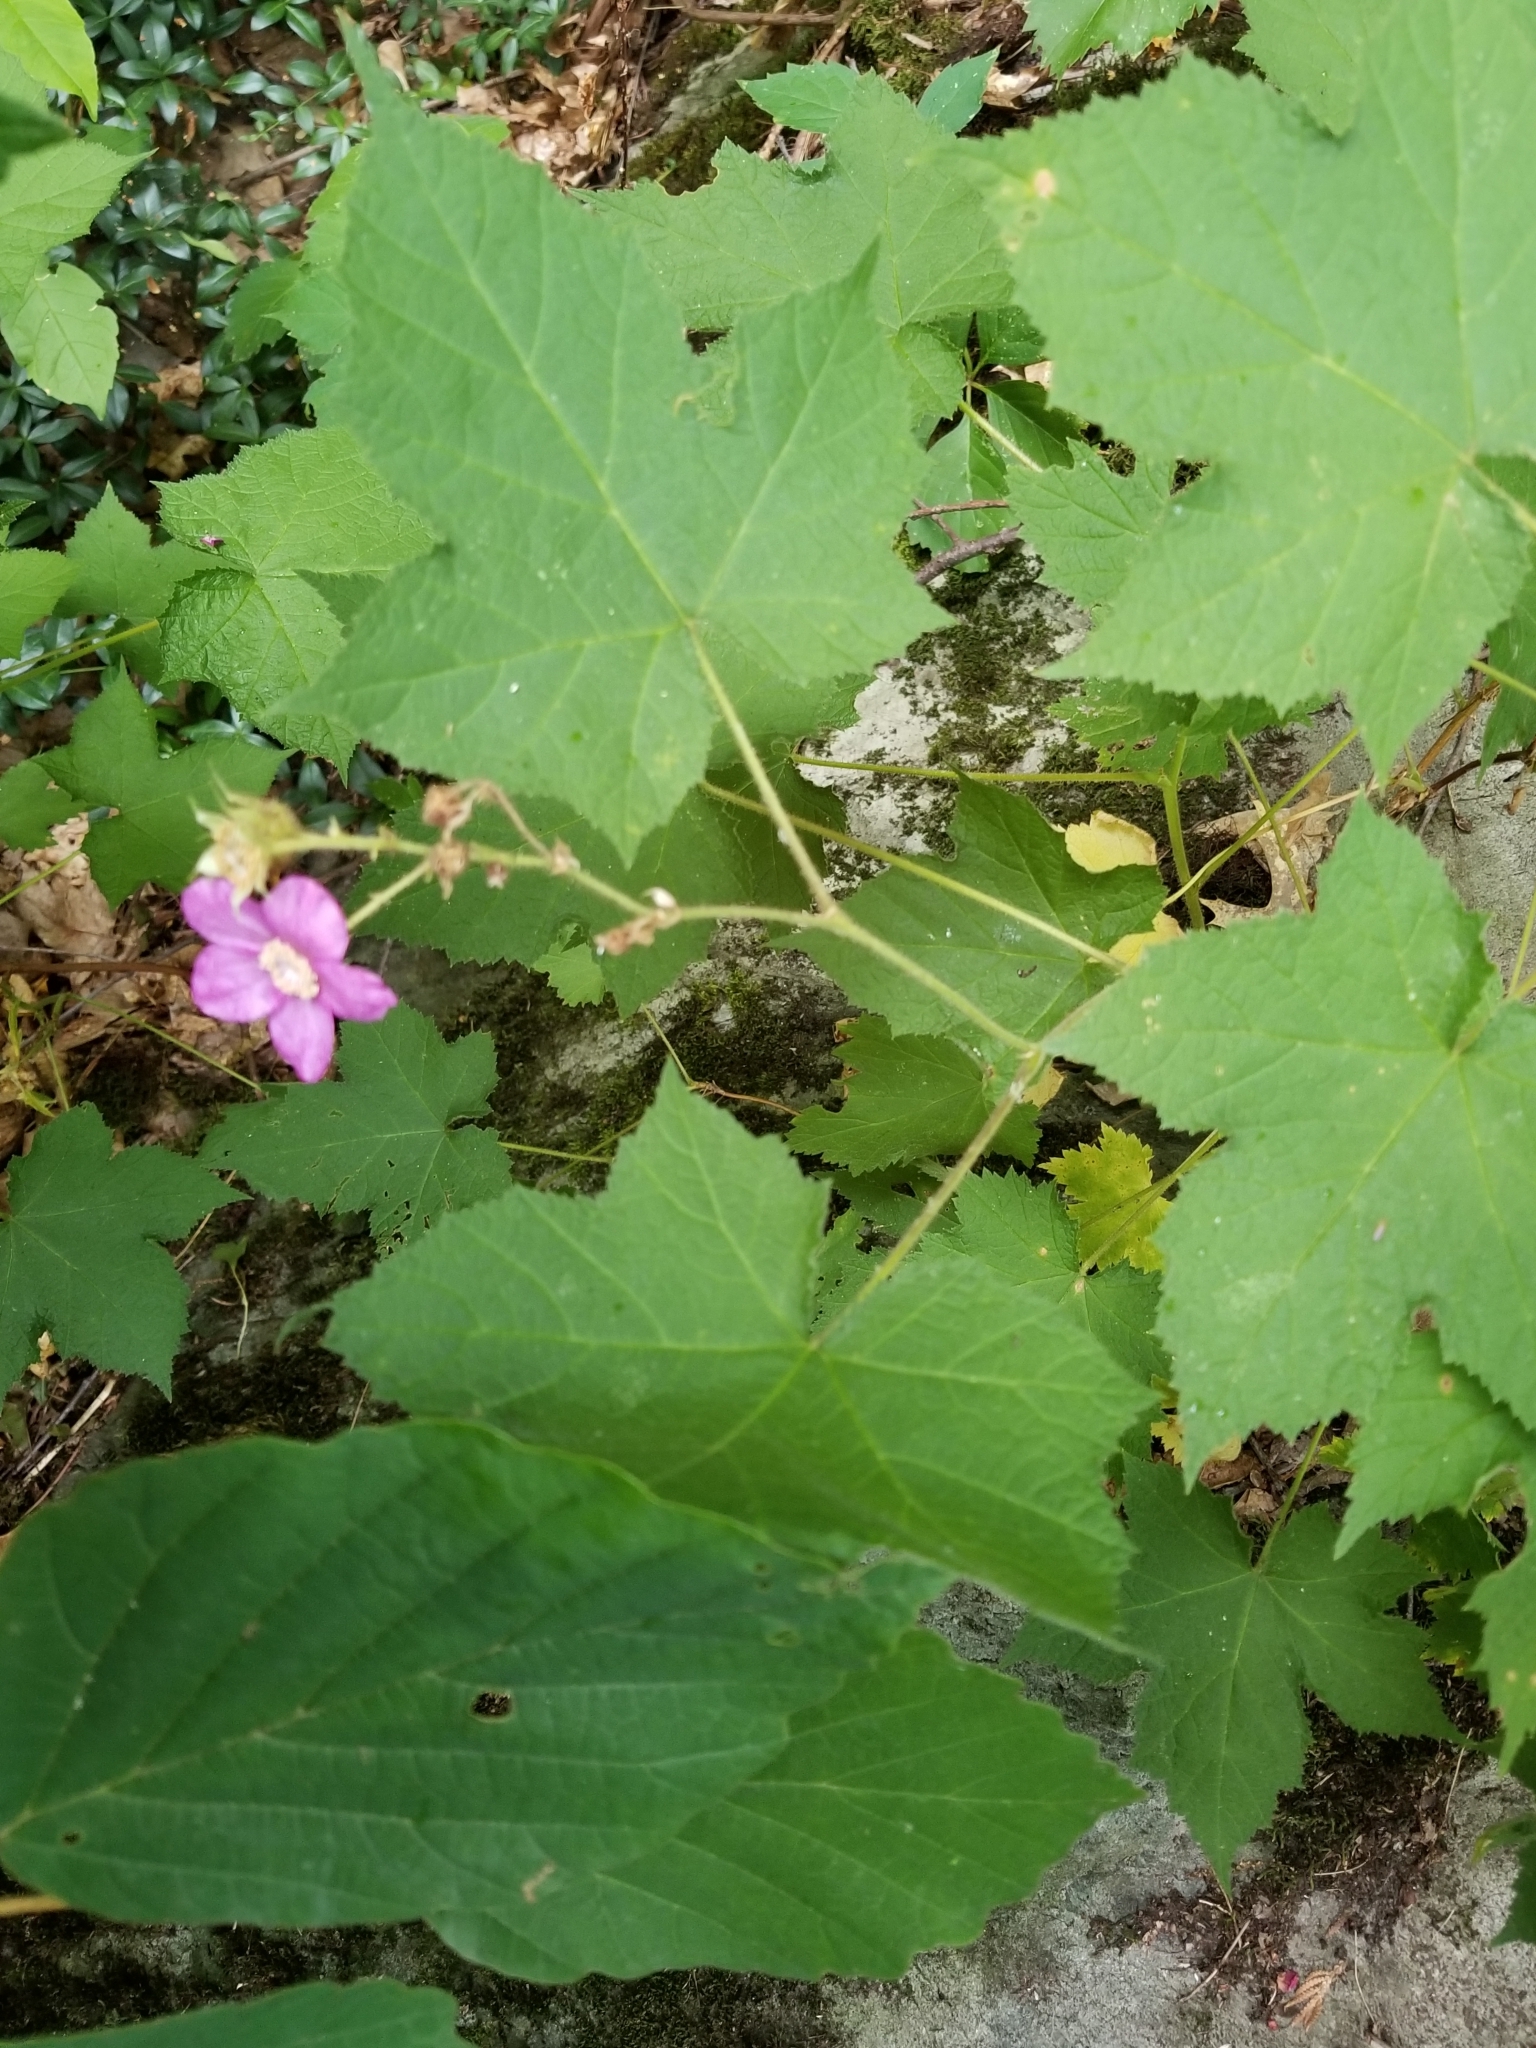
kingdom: Plantae
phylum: Tracheophyta
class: Magnoliopsida
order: Rosales
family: Rosaceae
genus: Rubus
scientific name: Rubus odoratus
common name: Purple-flowered raspberry
